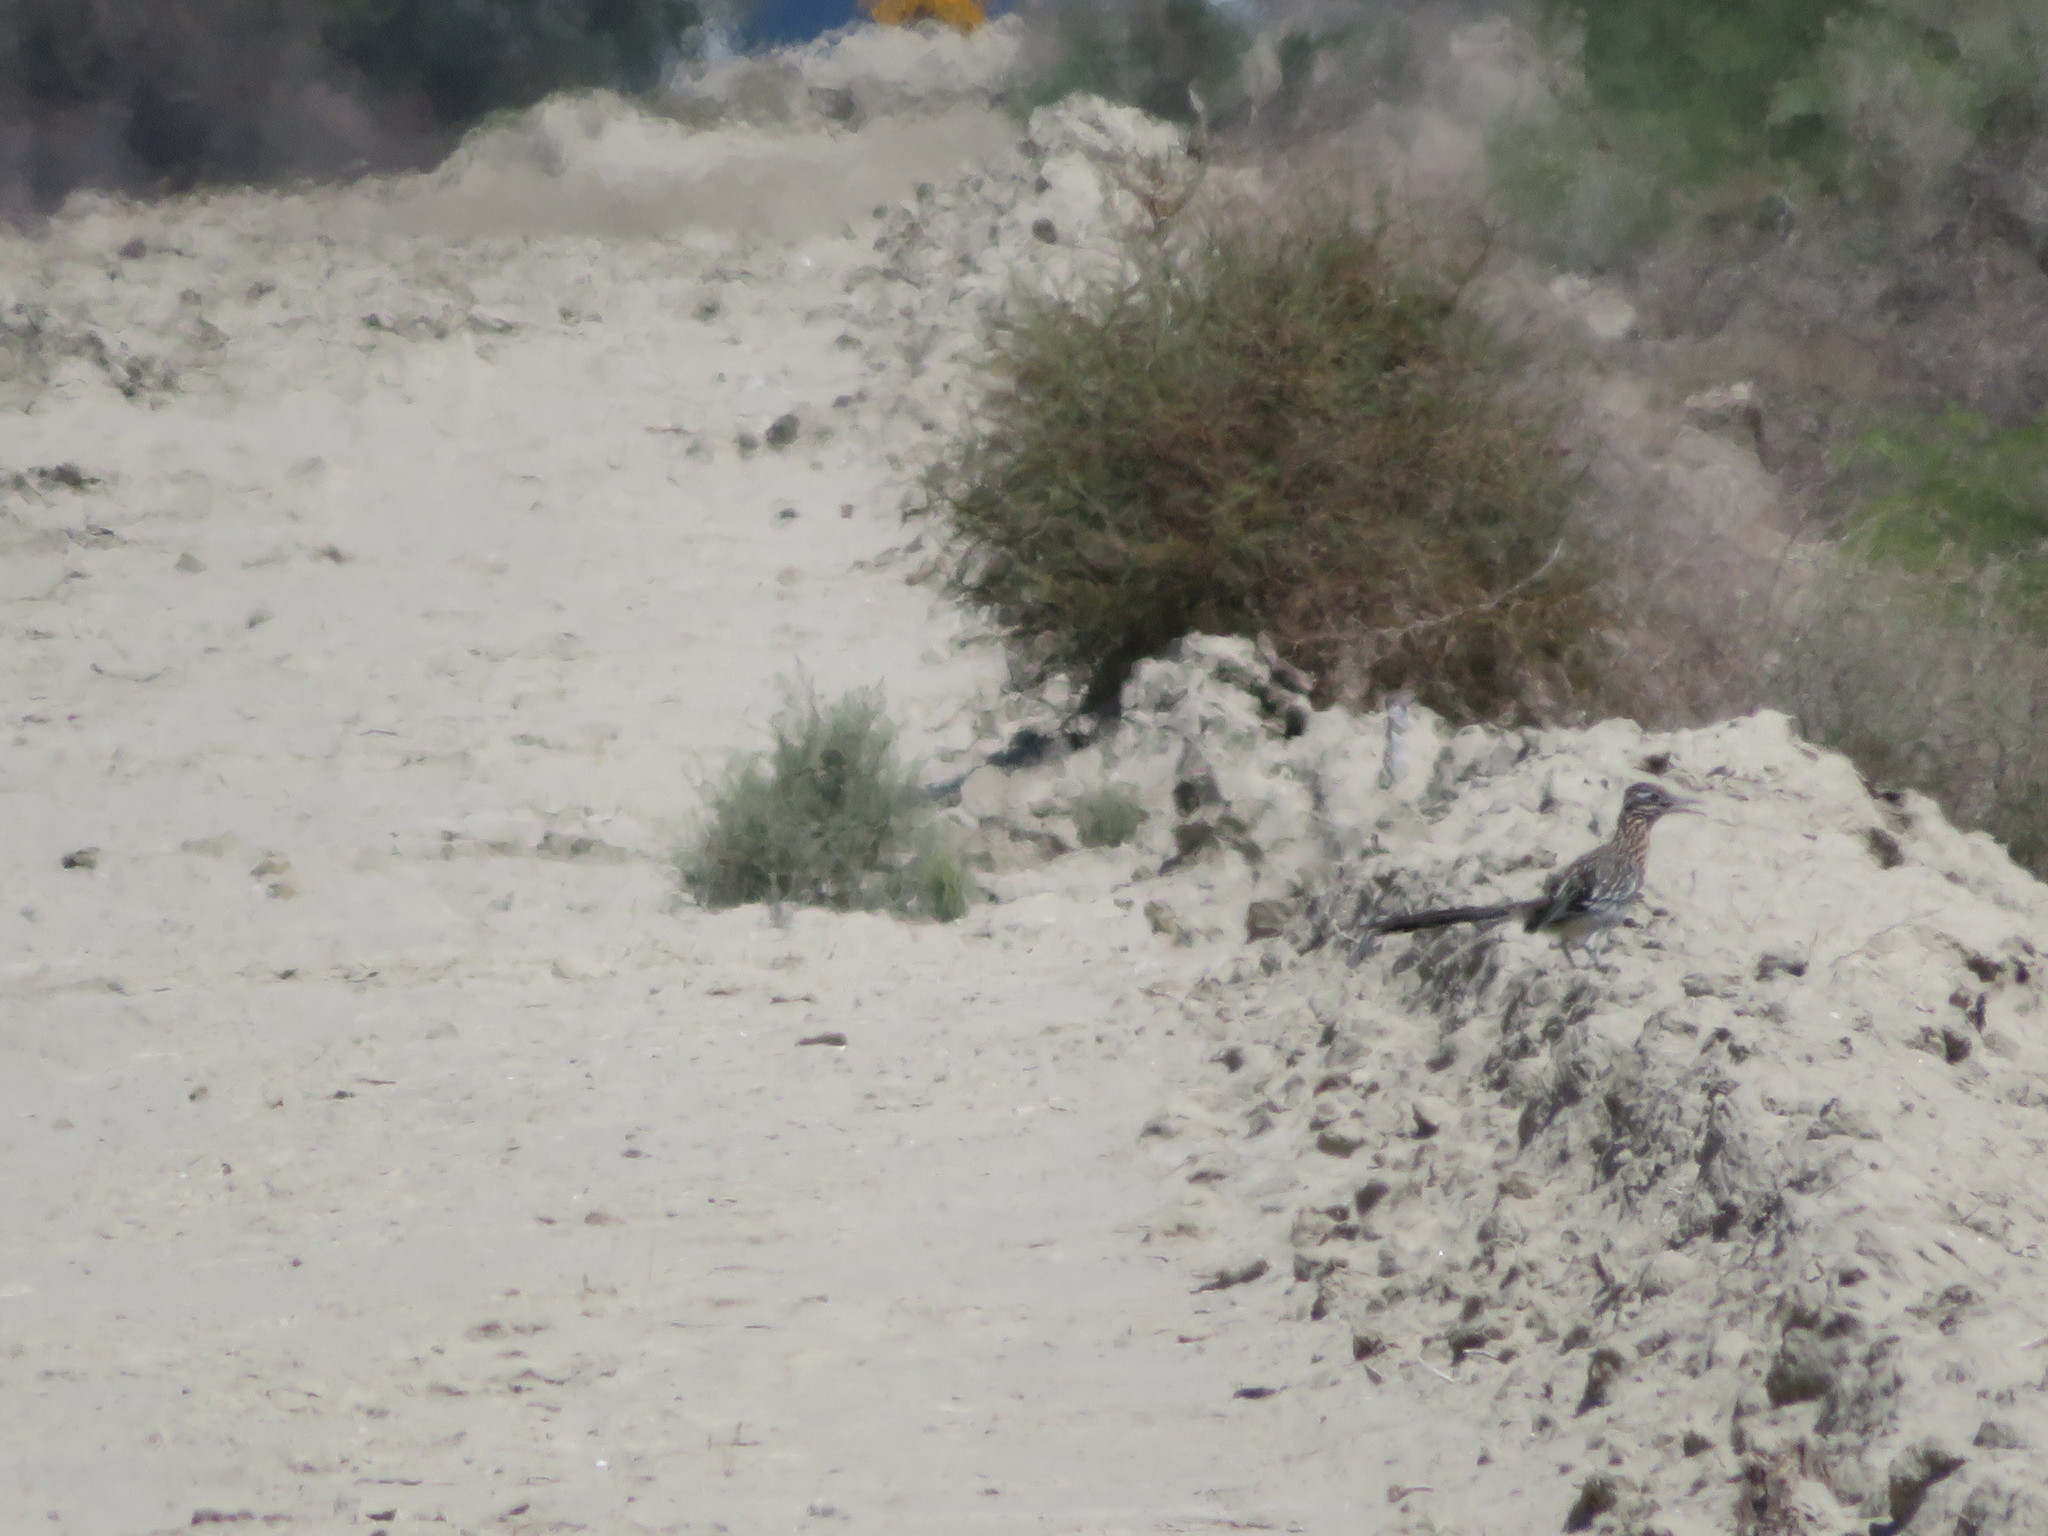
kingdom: Animalia
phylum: Chordata
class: Aves
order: Cuculiformes
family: Cuculidae
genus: Geococcyx
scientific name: Geococcyx californianus
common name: Greater roadrunner
